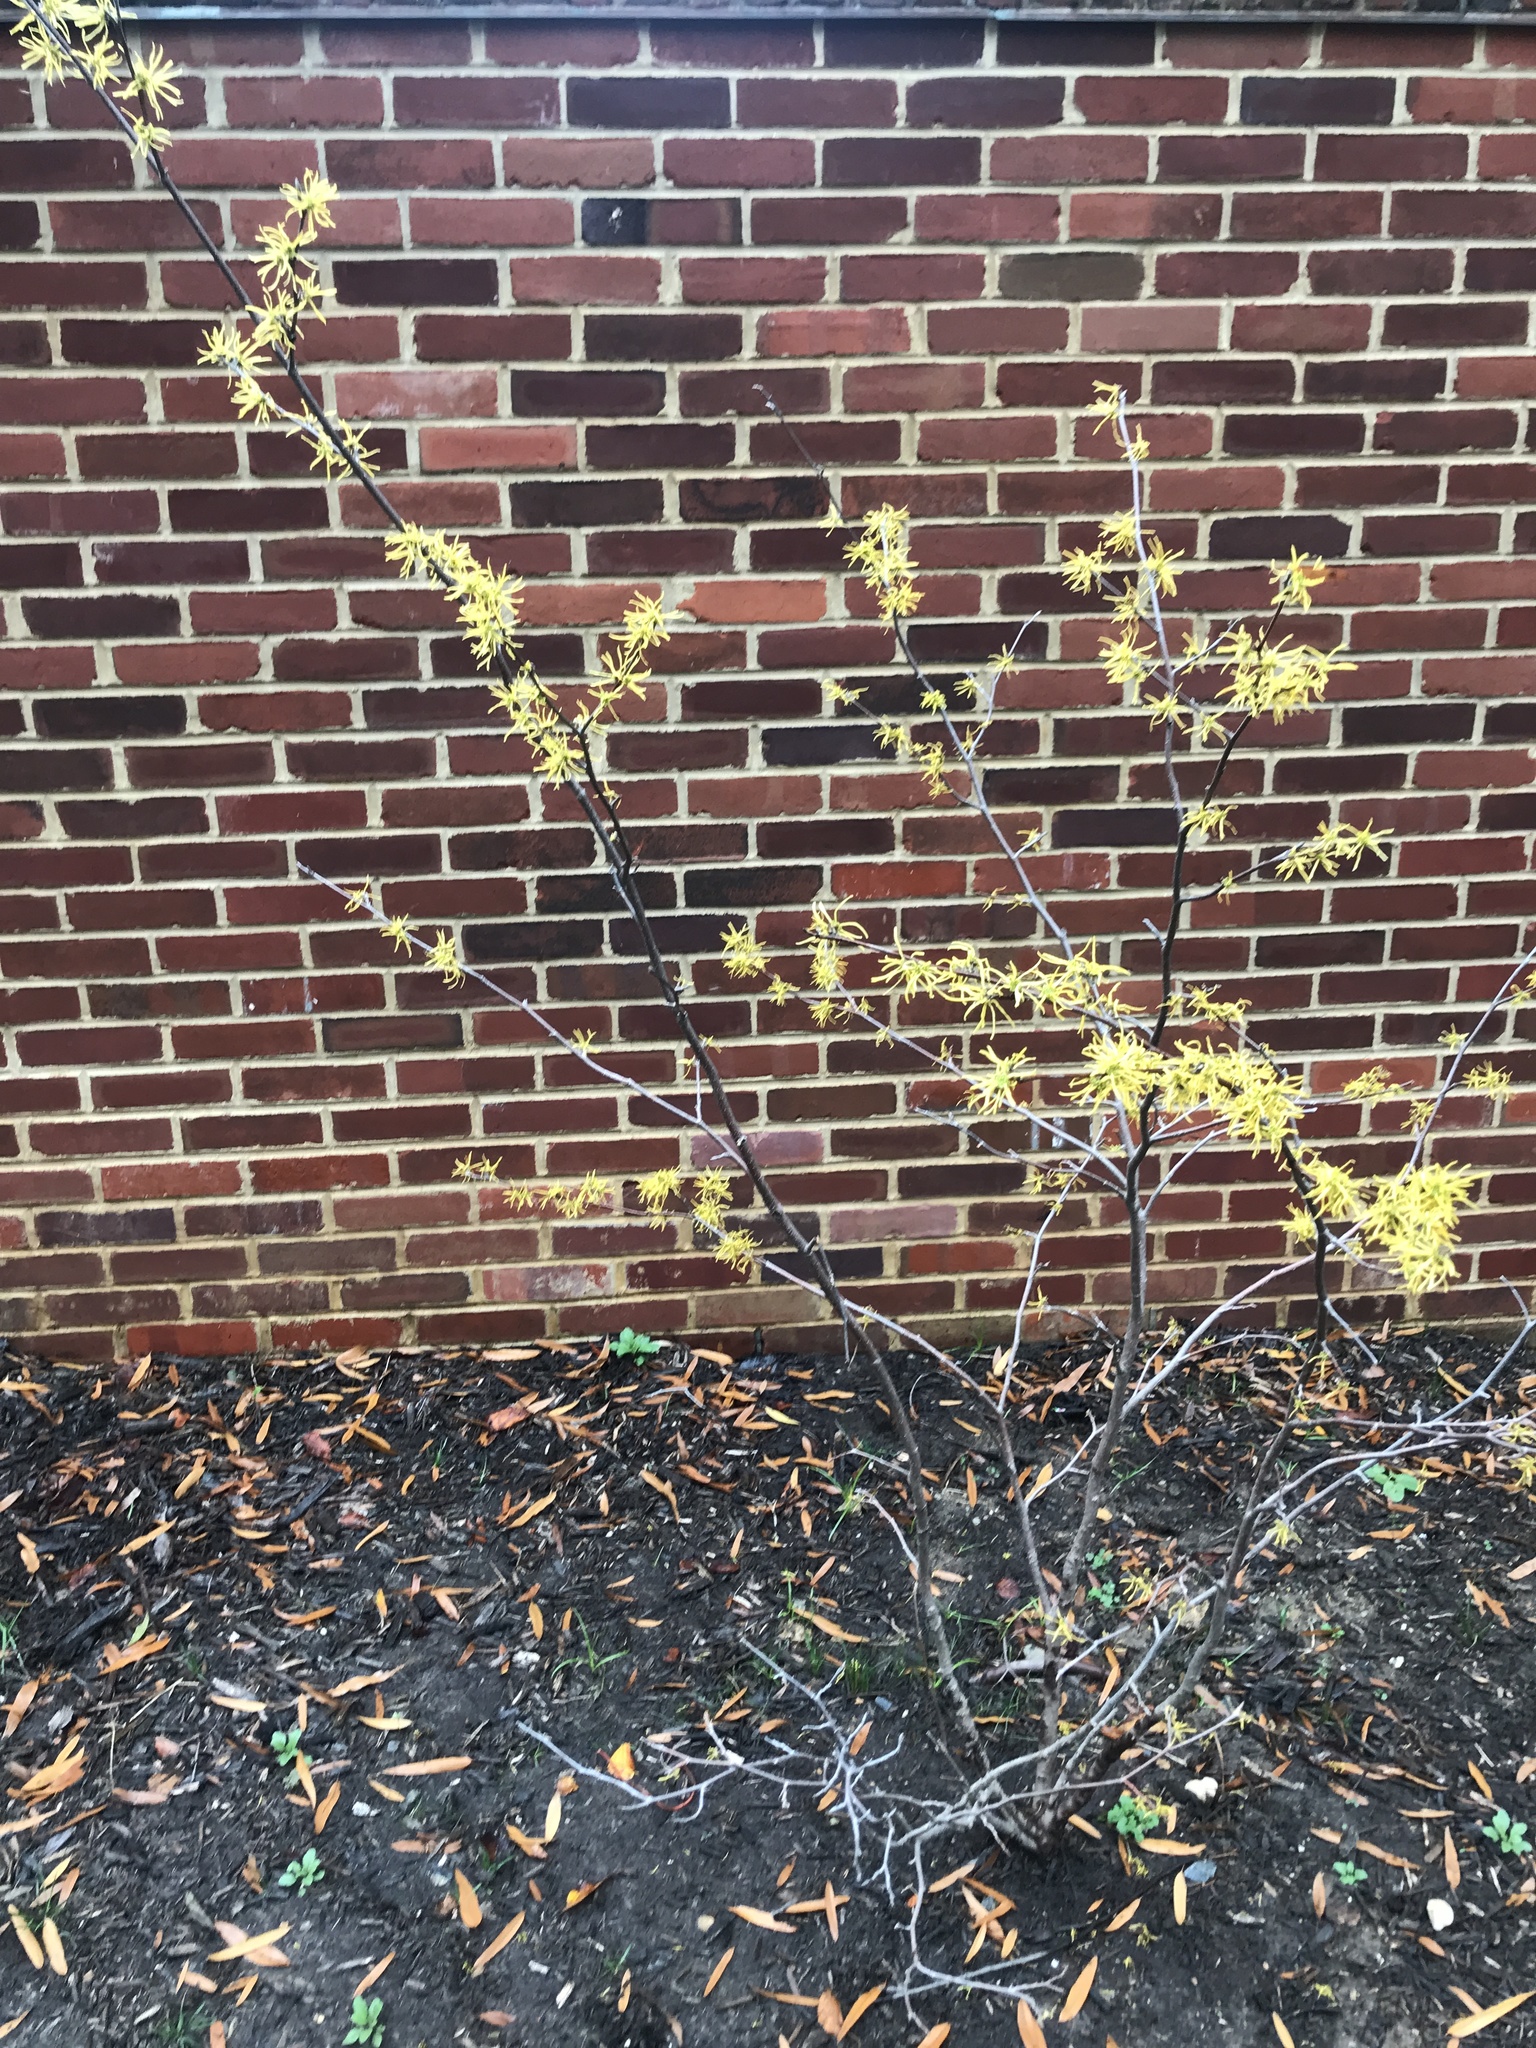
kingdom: Plantae
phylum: Tracheophyta
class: Magnoliopsida
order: Saxifragales
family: Hamamelidaceae
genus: Hamamelis
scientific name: Hamamelis virginiana
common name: Witch-hazel
